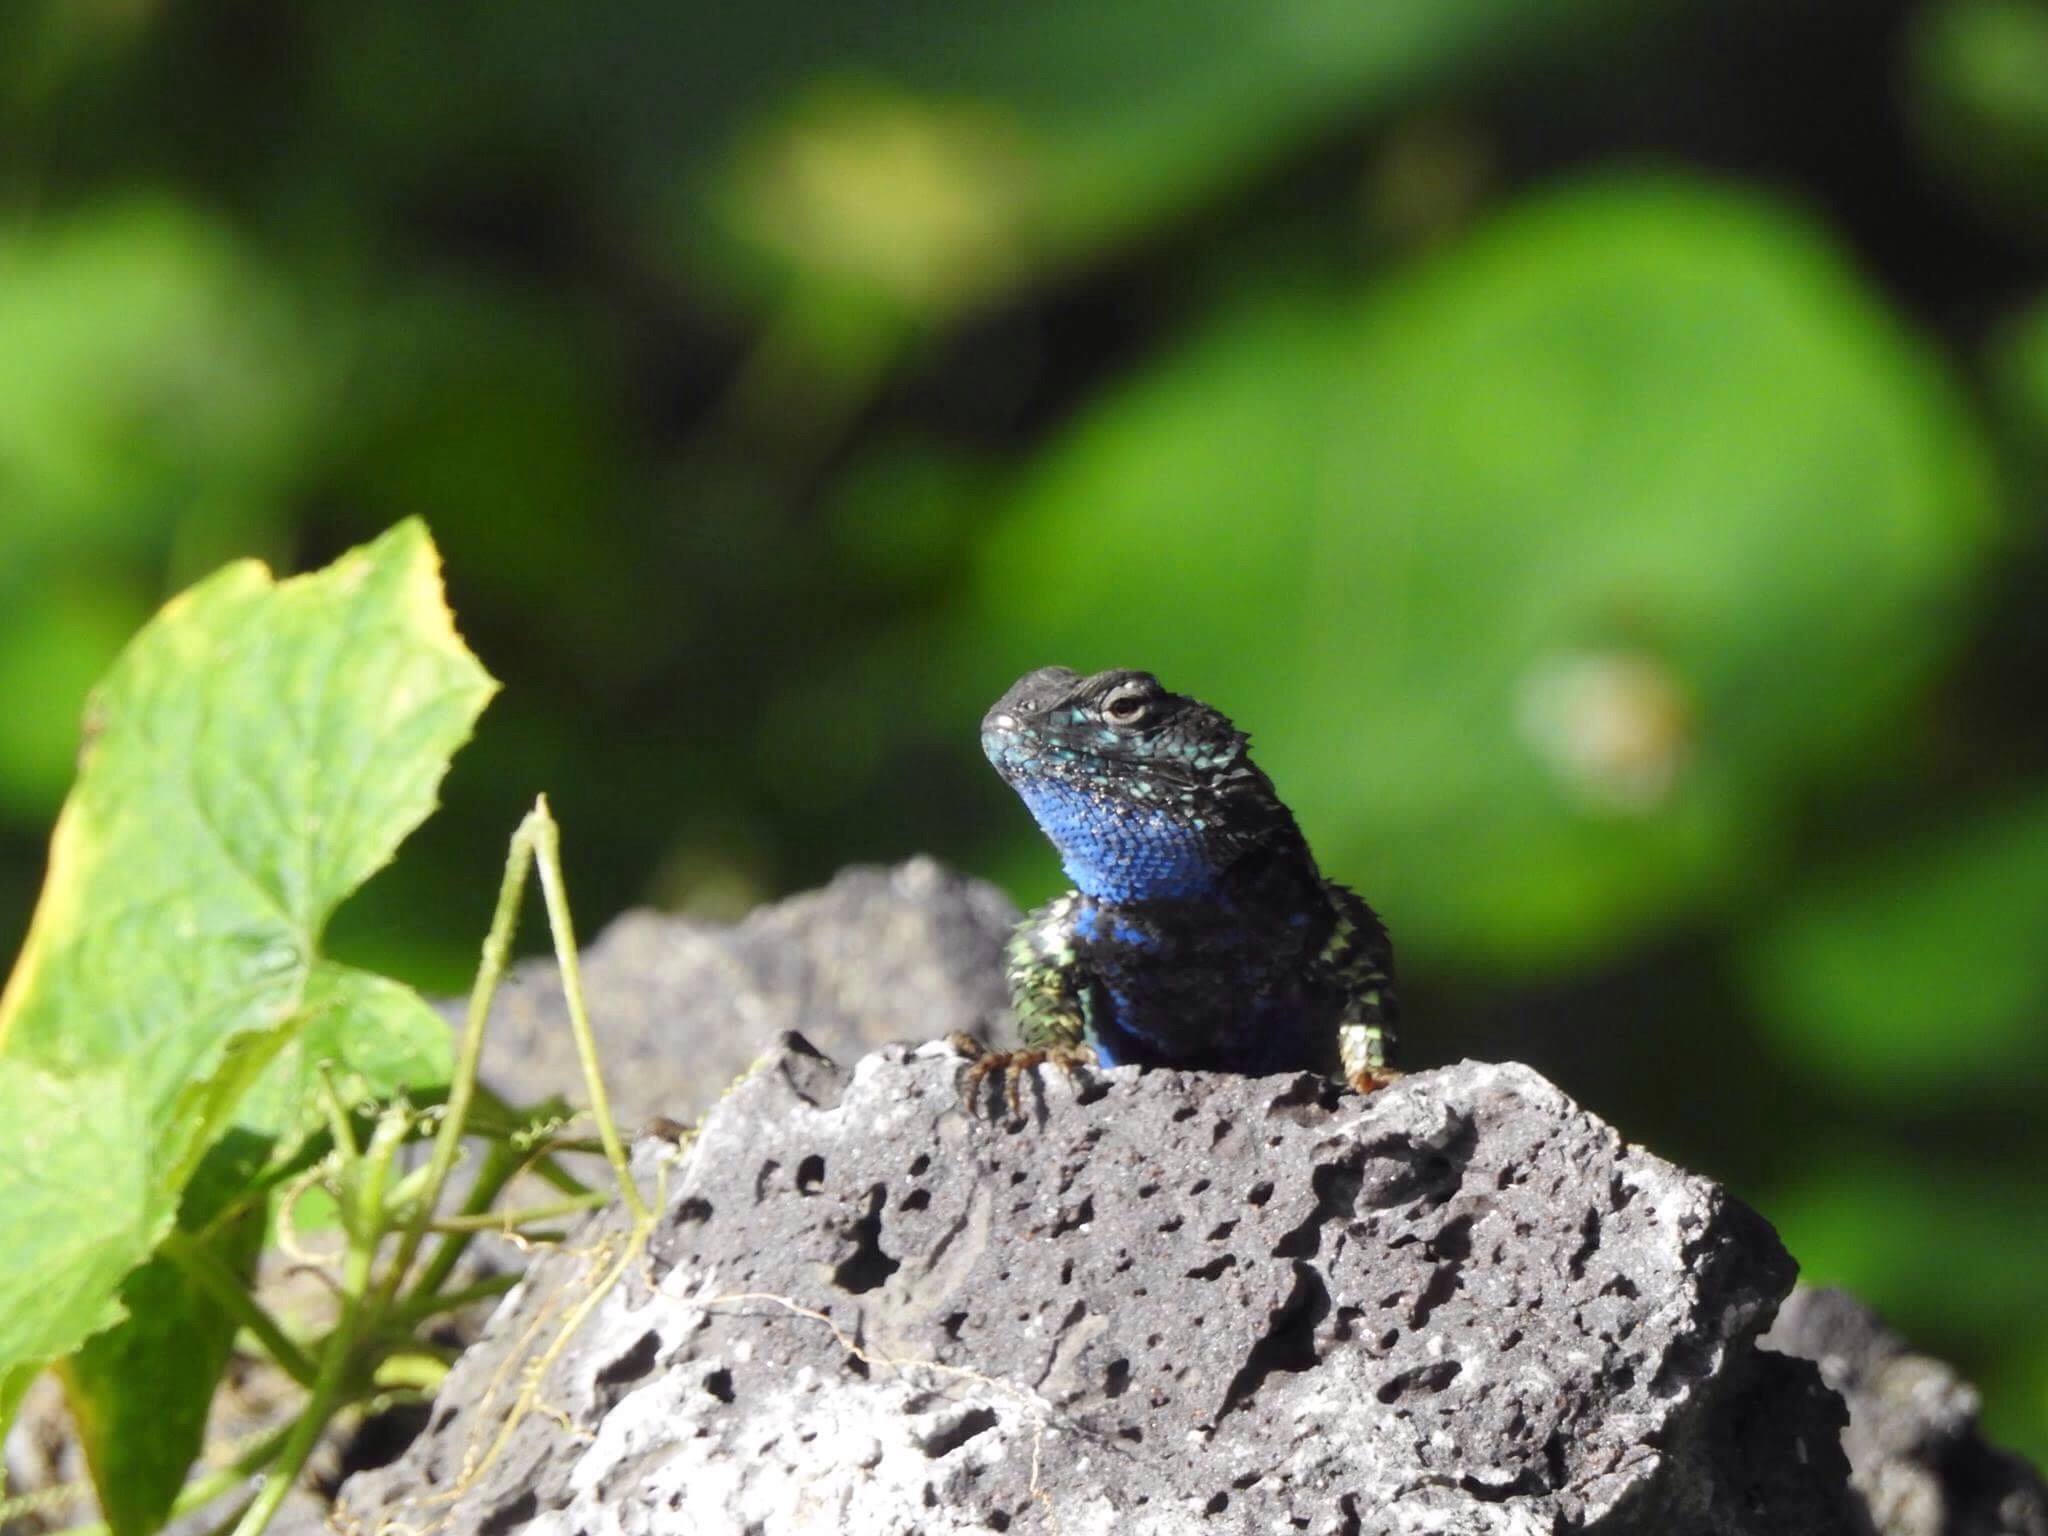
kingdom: Animalia
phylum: Chordata
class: Squamata
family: Phrynosomatidae
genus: Sceloporus
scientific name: Sceloporus torquatus
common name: Central plateau torquate lizard [melanogaster]
